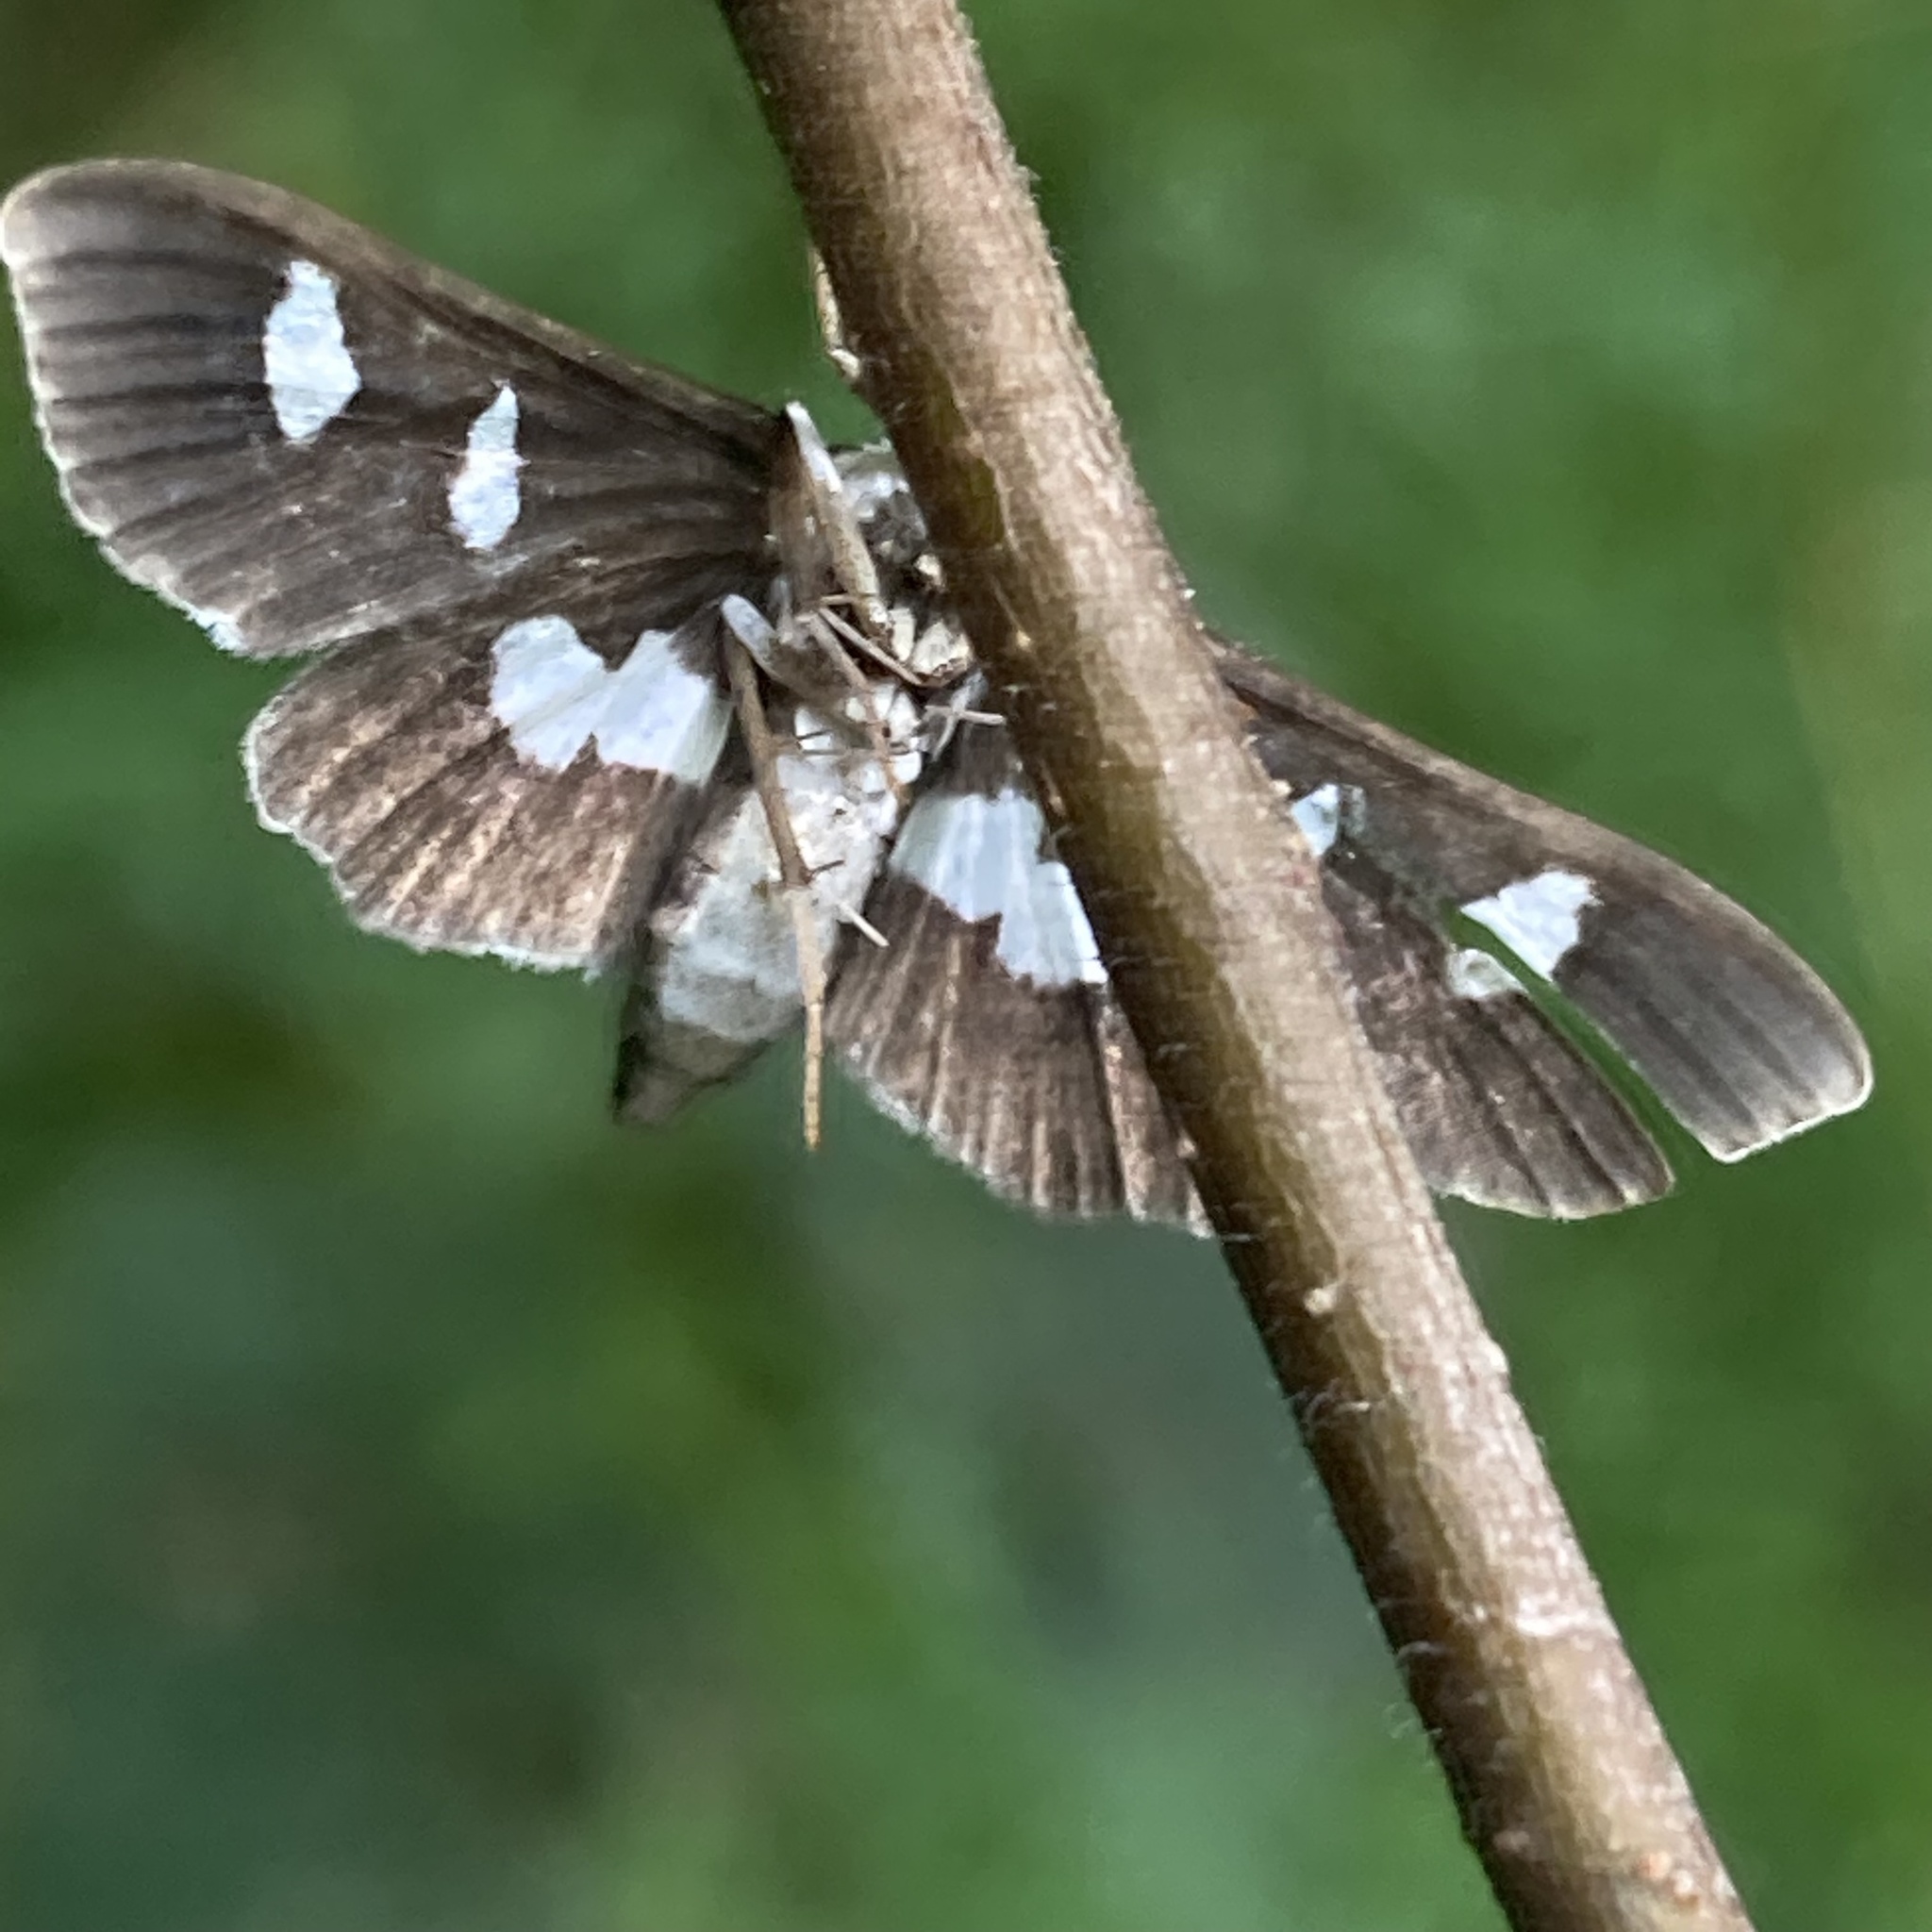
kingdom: Animalia
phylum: Arthropoda
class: Insecta
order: Lepidoptera
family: Crambidae
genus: Desmia
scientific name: Desmia funeralis
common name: Grape leaf folder moth
